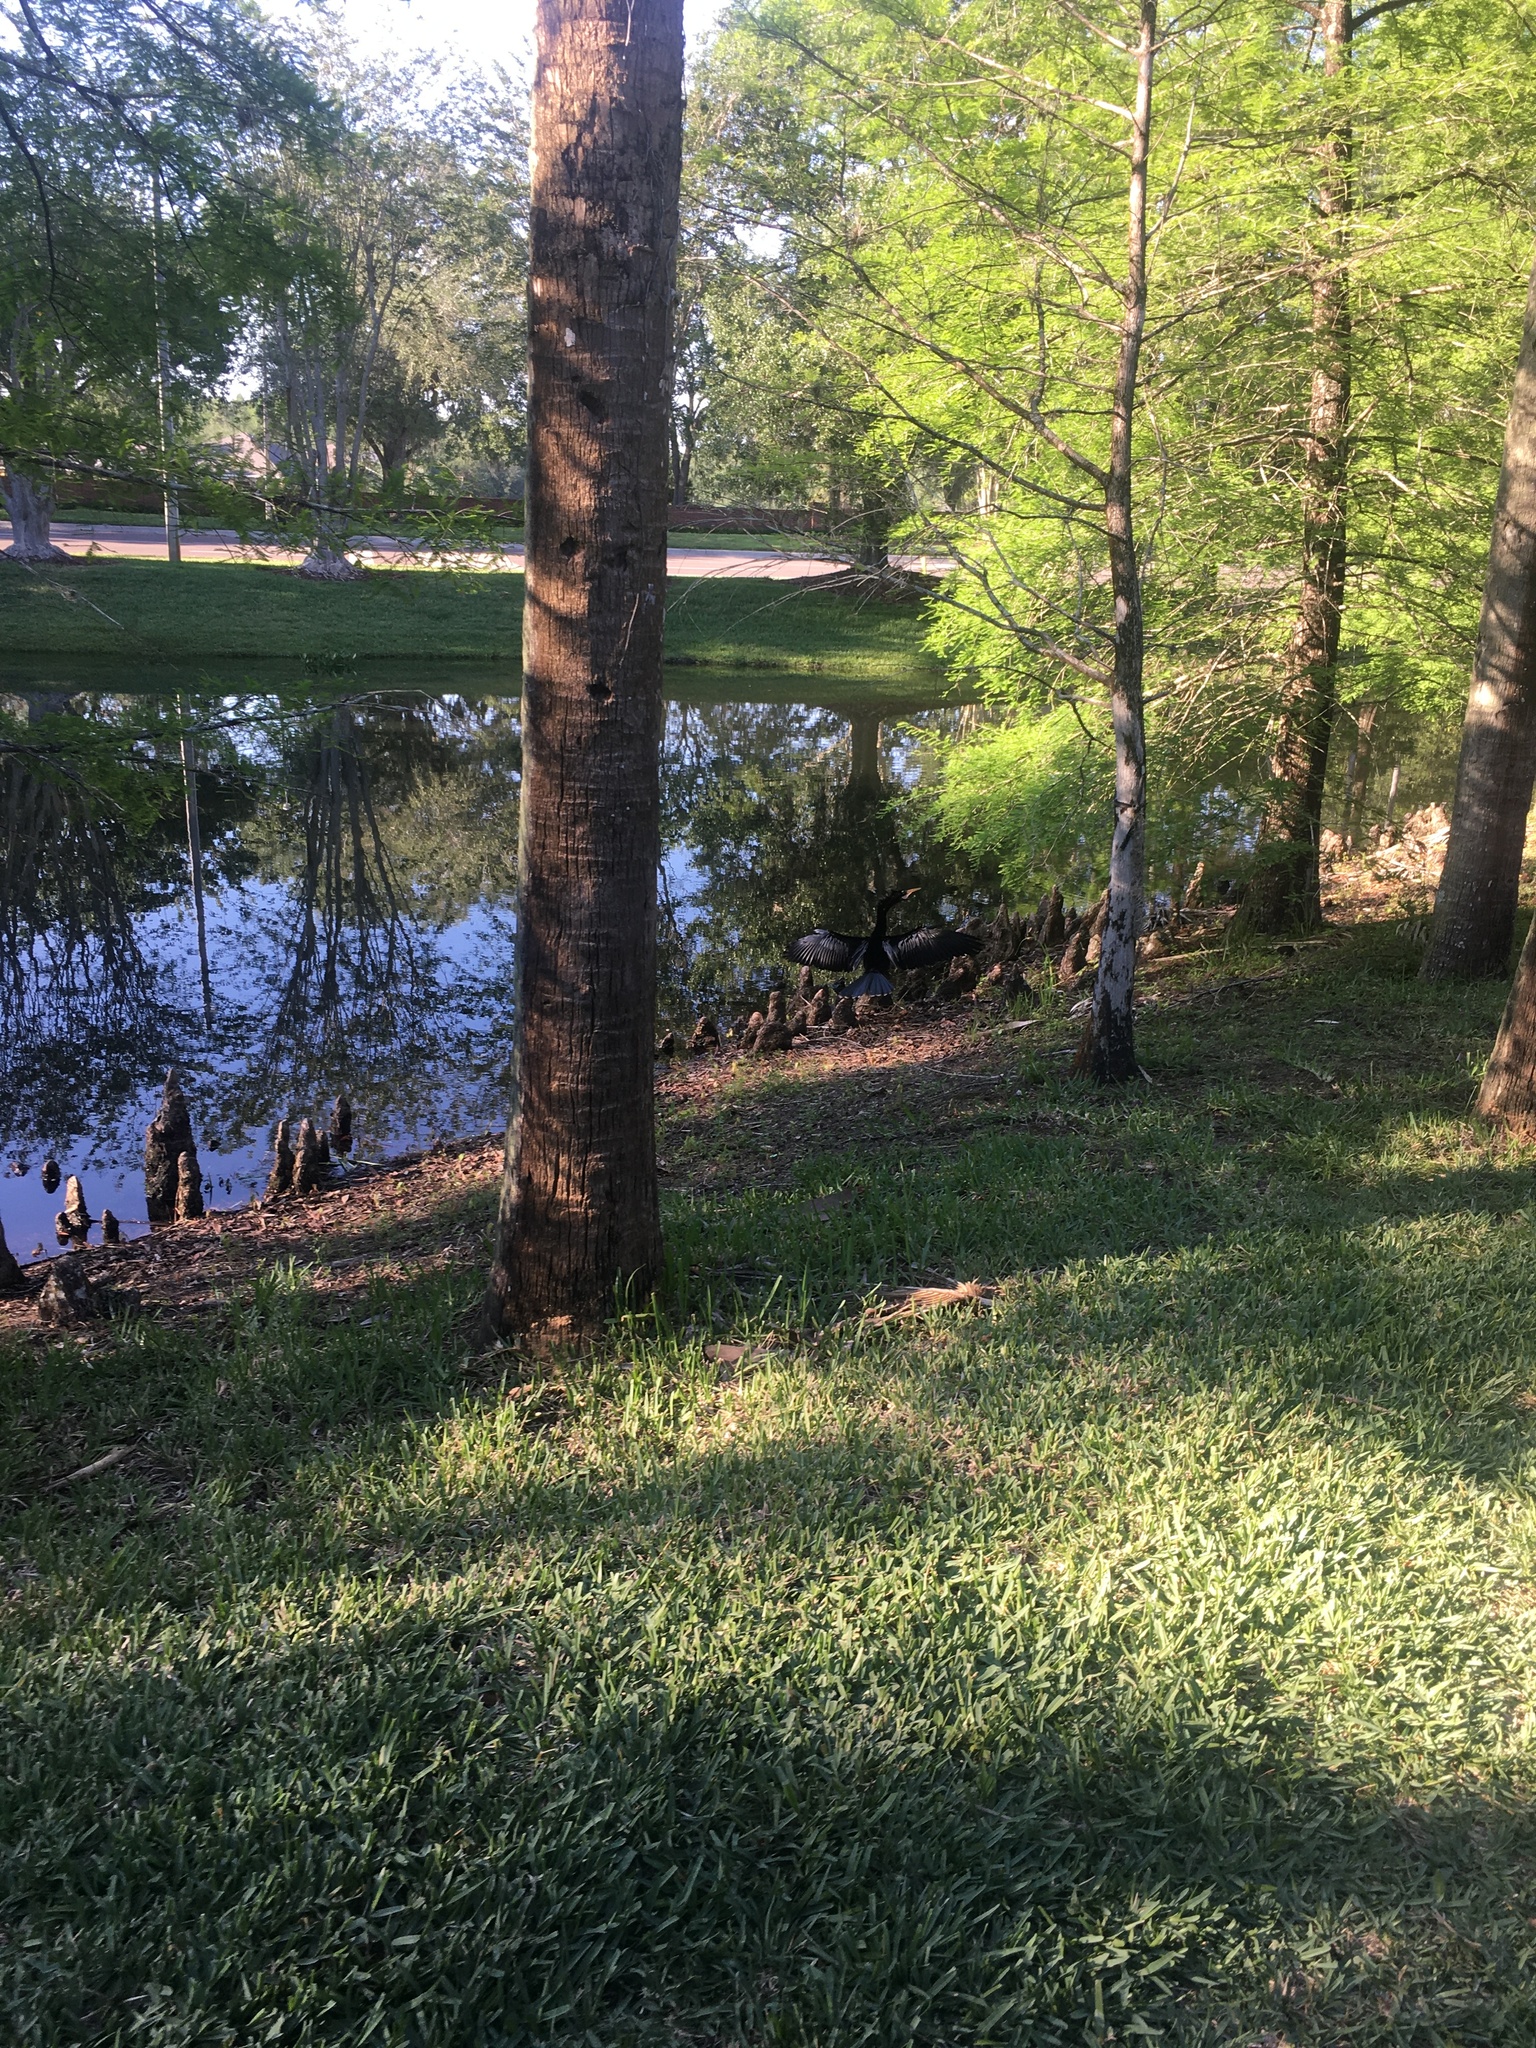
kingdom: Animalia
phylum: Chordata
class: Aves
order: Suliformes
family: Anhingidae
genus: Anhinga
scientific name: Anhinga anhinga
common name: Anhinga
